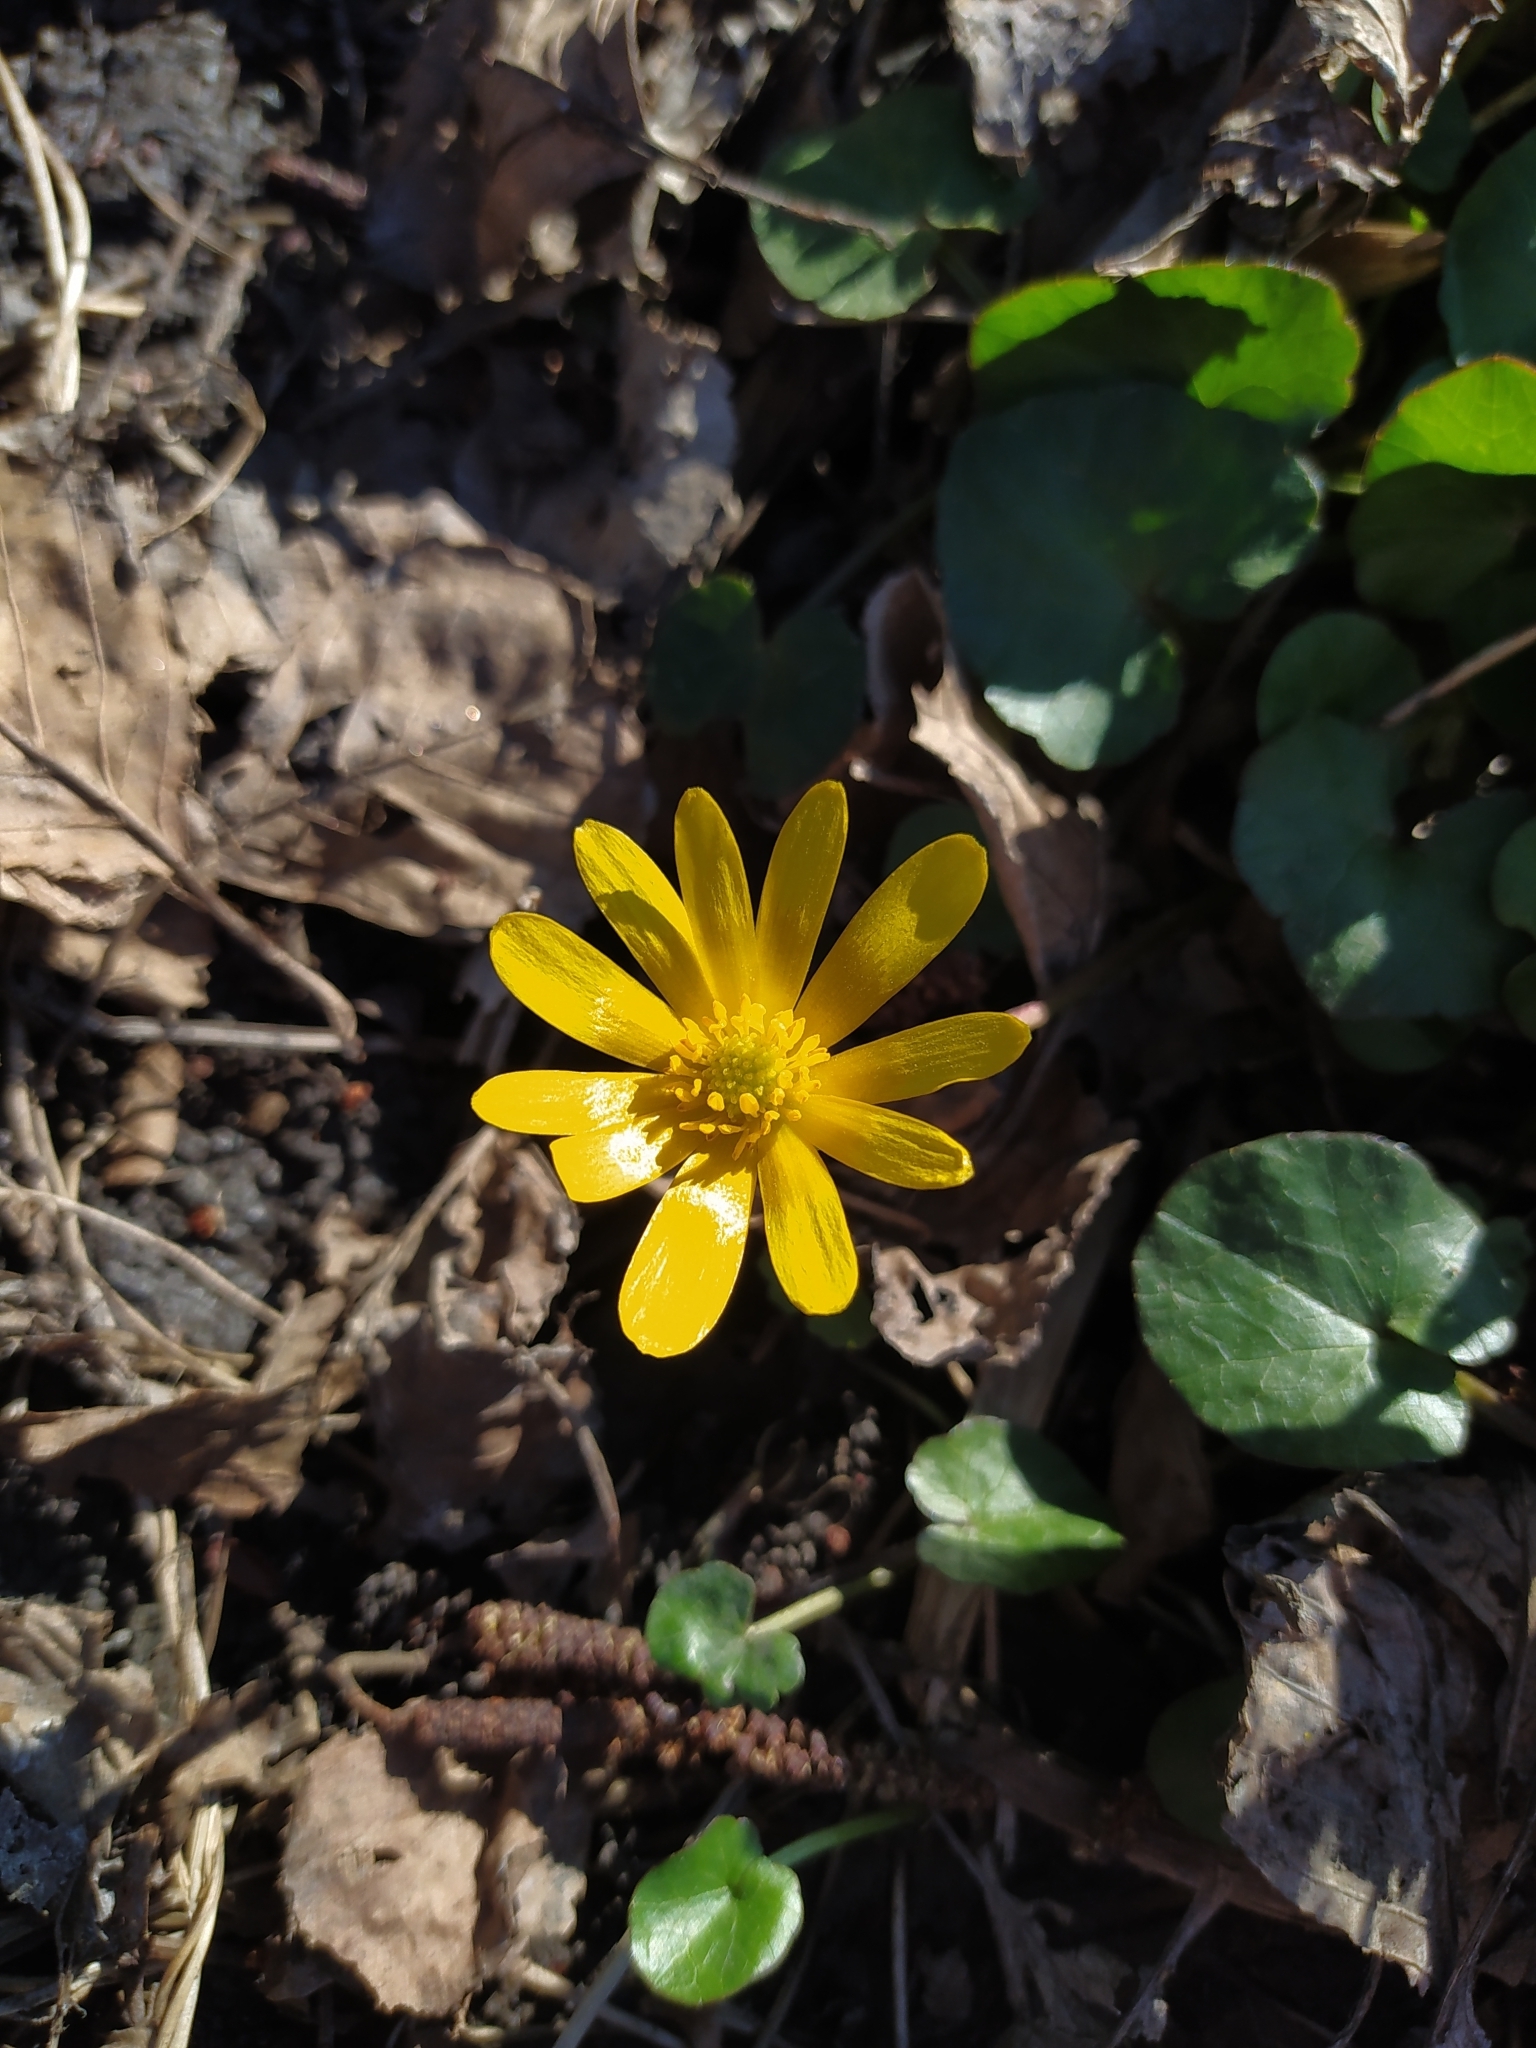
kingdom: Plantae
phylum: Tracheophyta
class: Magnoliopsida
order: Ranunculales
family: Ranunculaceae
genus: Ficaria
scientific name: Ficaria verna
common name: Lesser celandine
